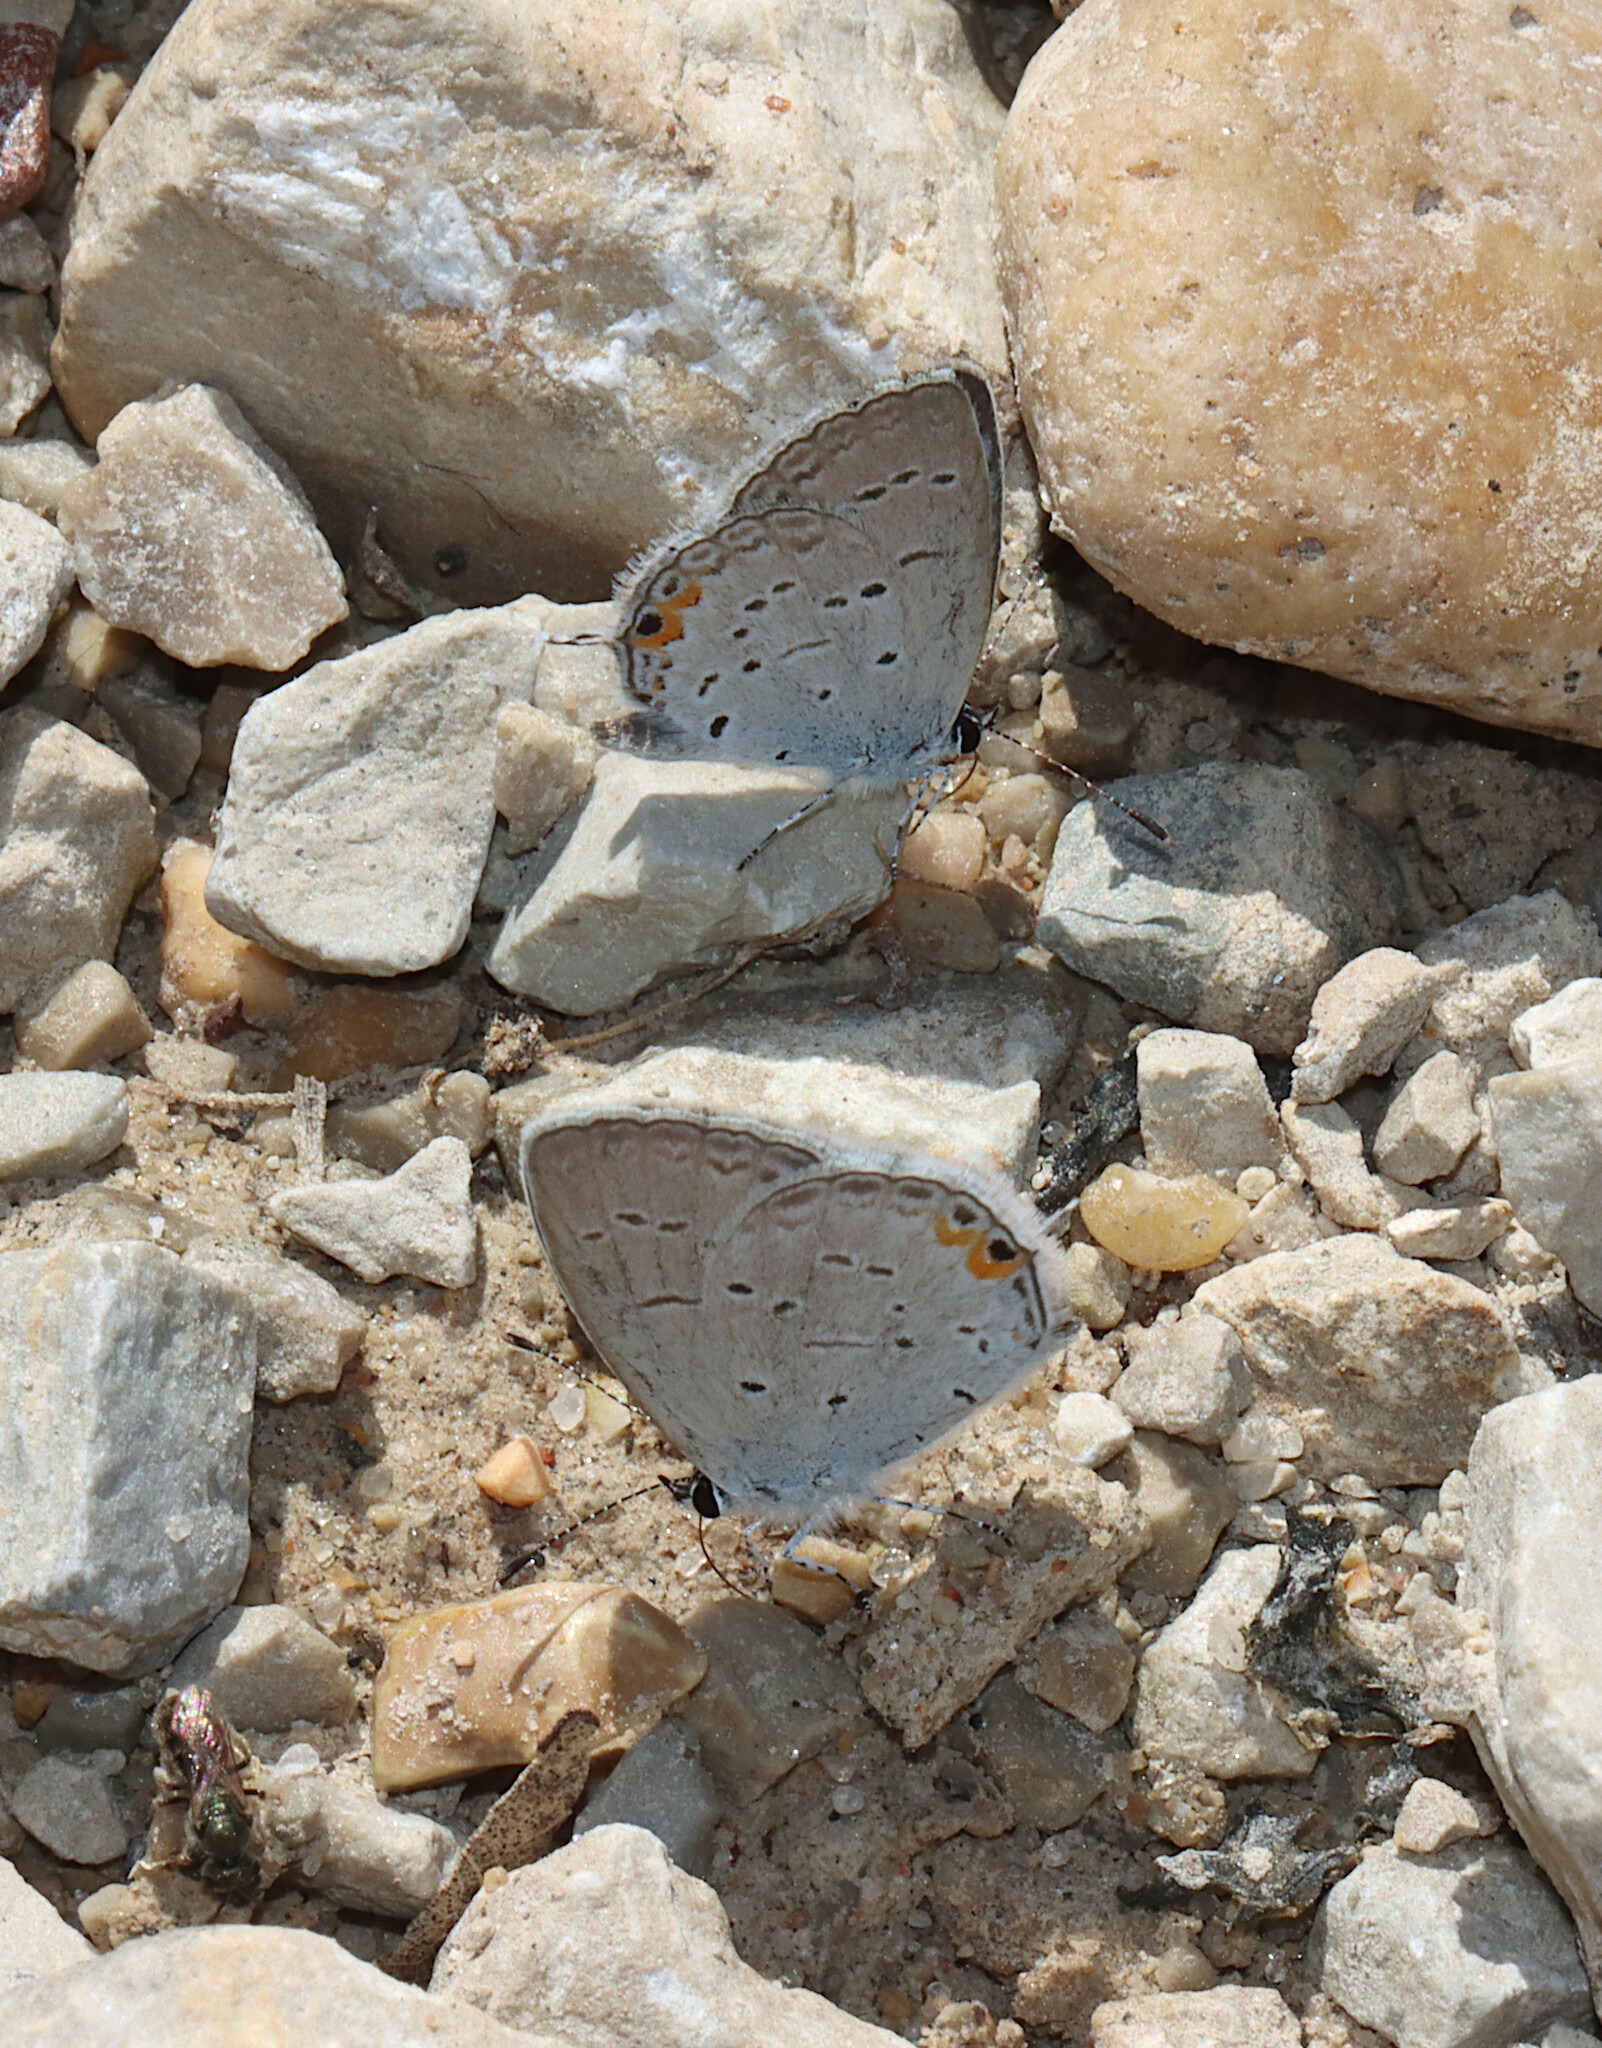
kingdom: Animalia
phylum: Arthropoda
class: Insecta
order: Lepidoptera
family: Lycaenidae
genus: Elkalyce
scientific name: Elkalyce comyntas
